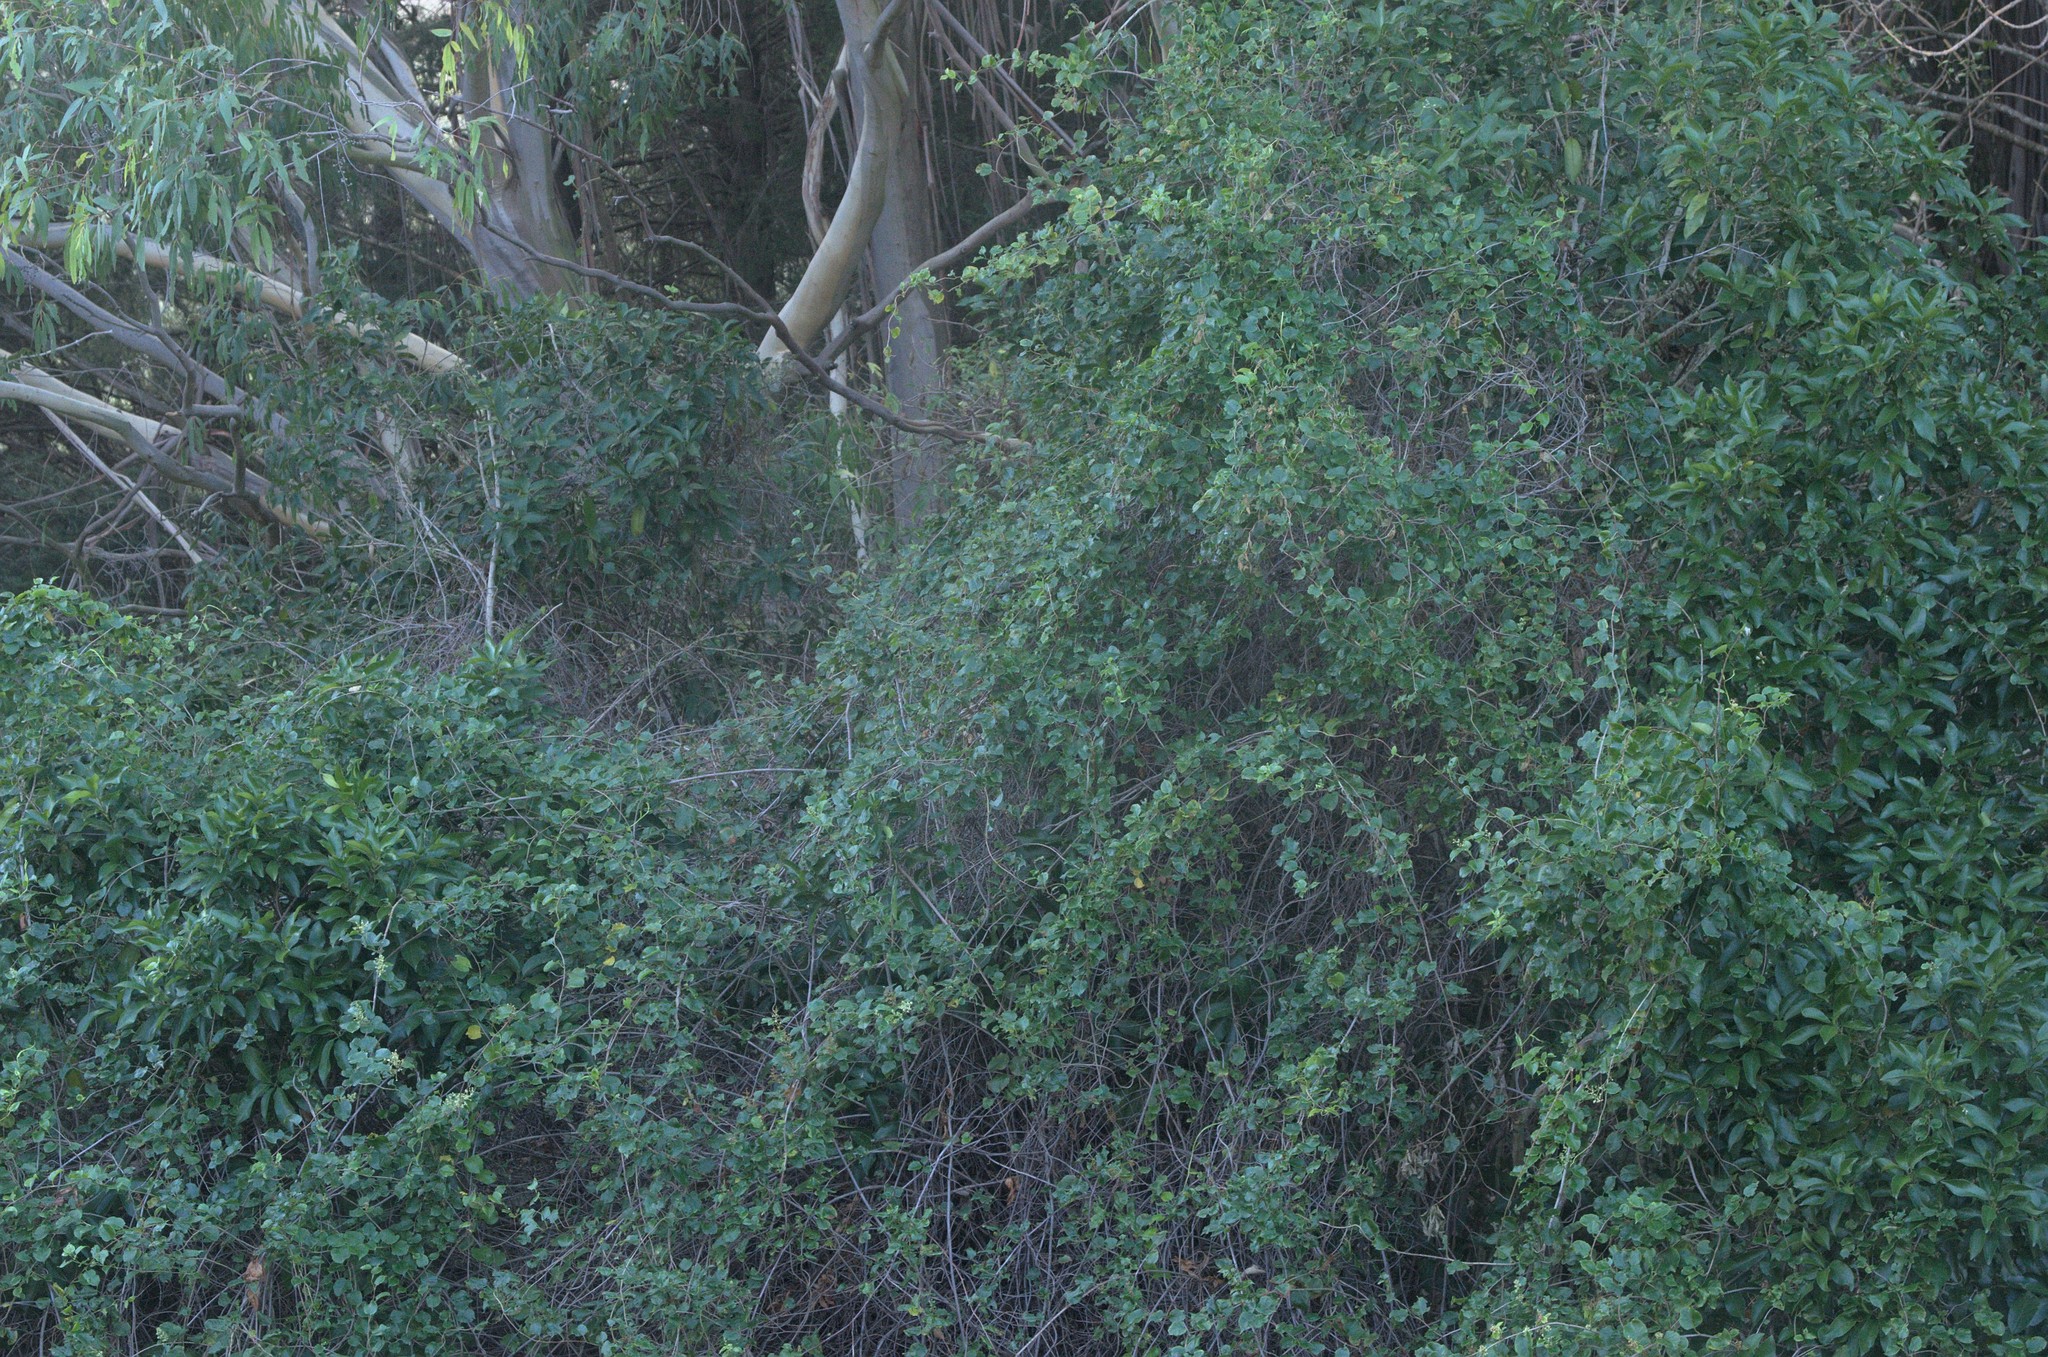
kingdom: Plantae
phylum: Tracheophyta
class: Magnoliopsida
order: Caryophyllales
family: Polygonaceae
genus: Muehlenbeckia
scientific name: Muehlenbeckia complexa
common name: Wireplant
